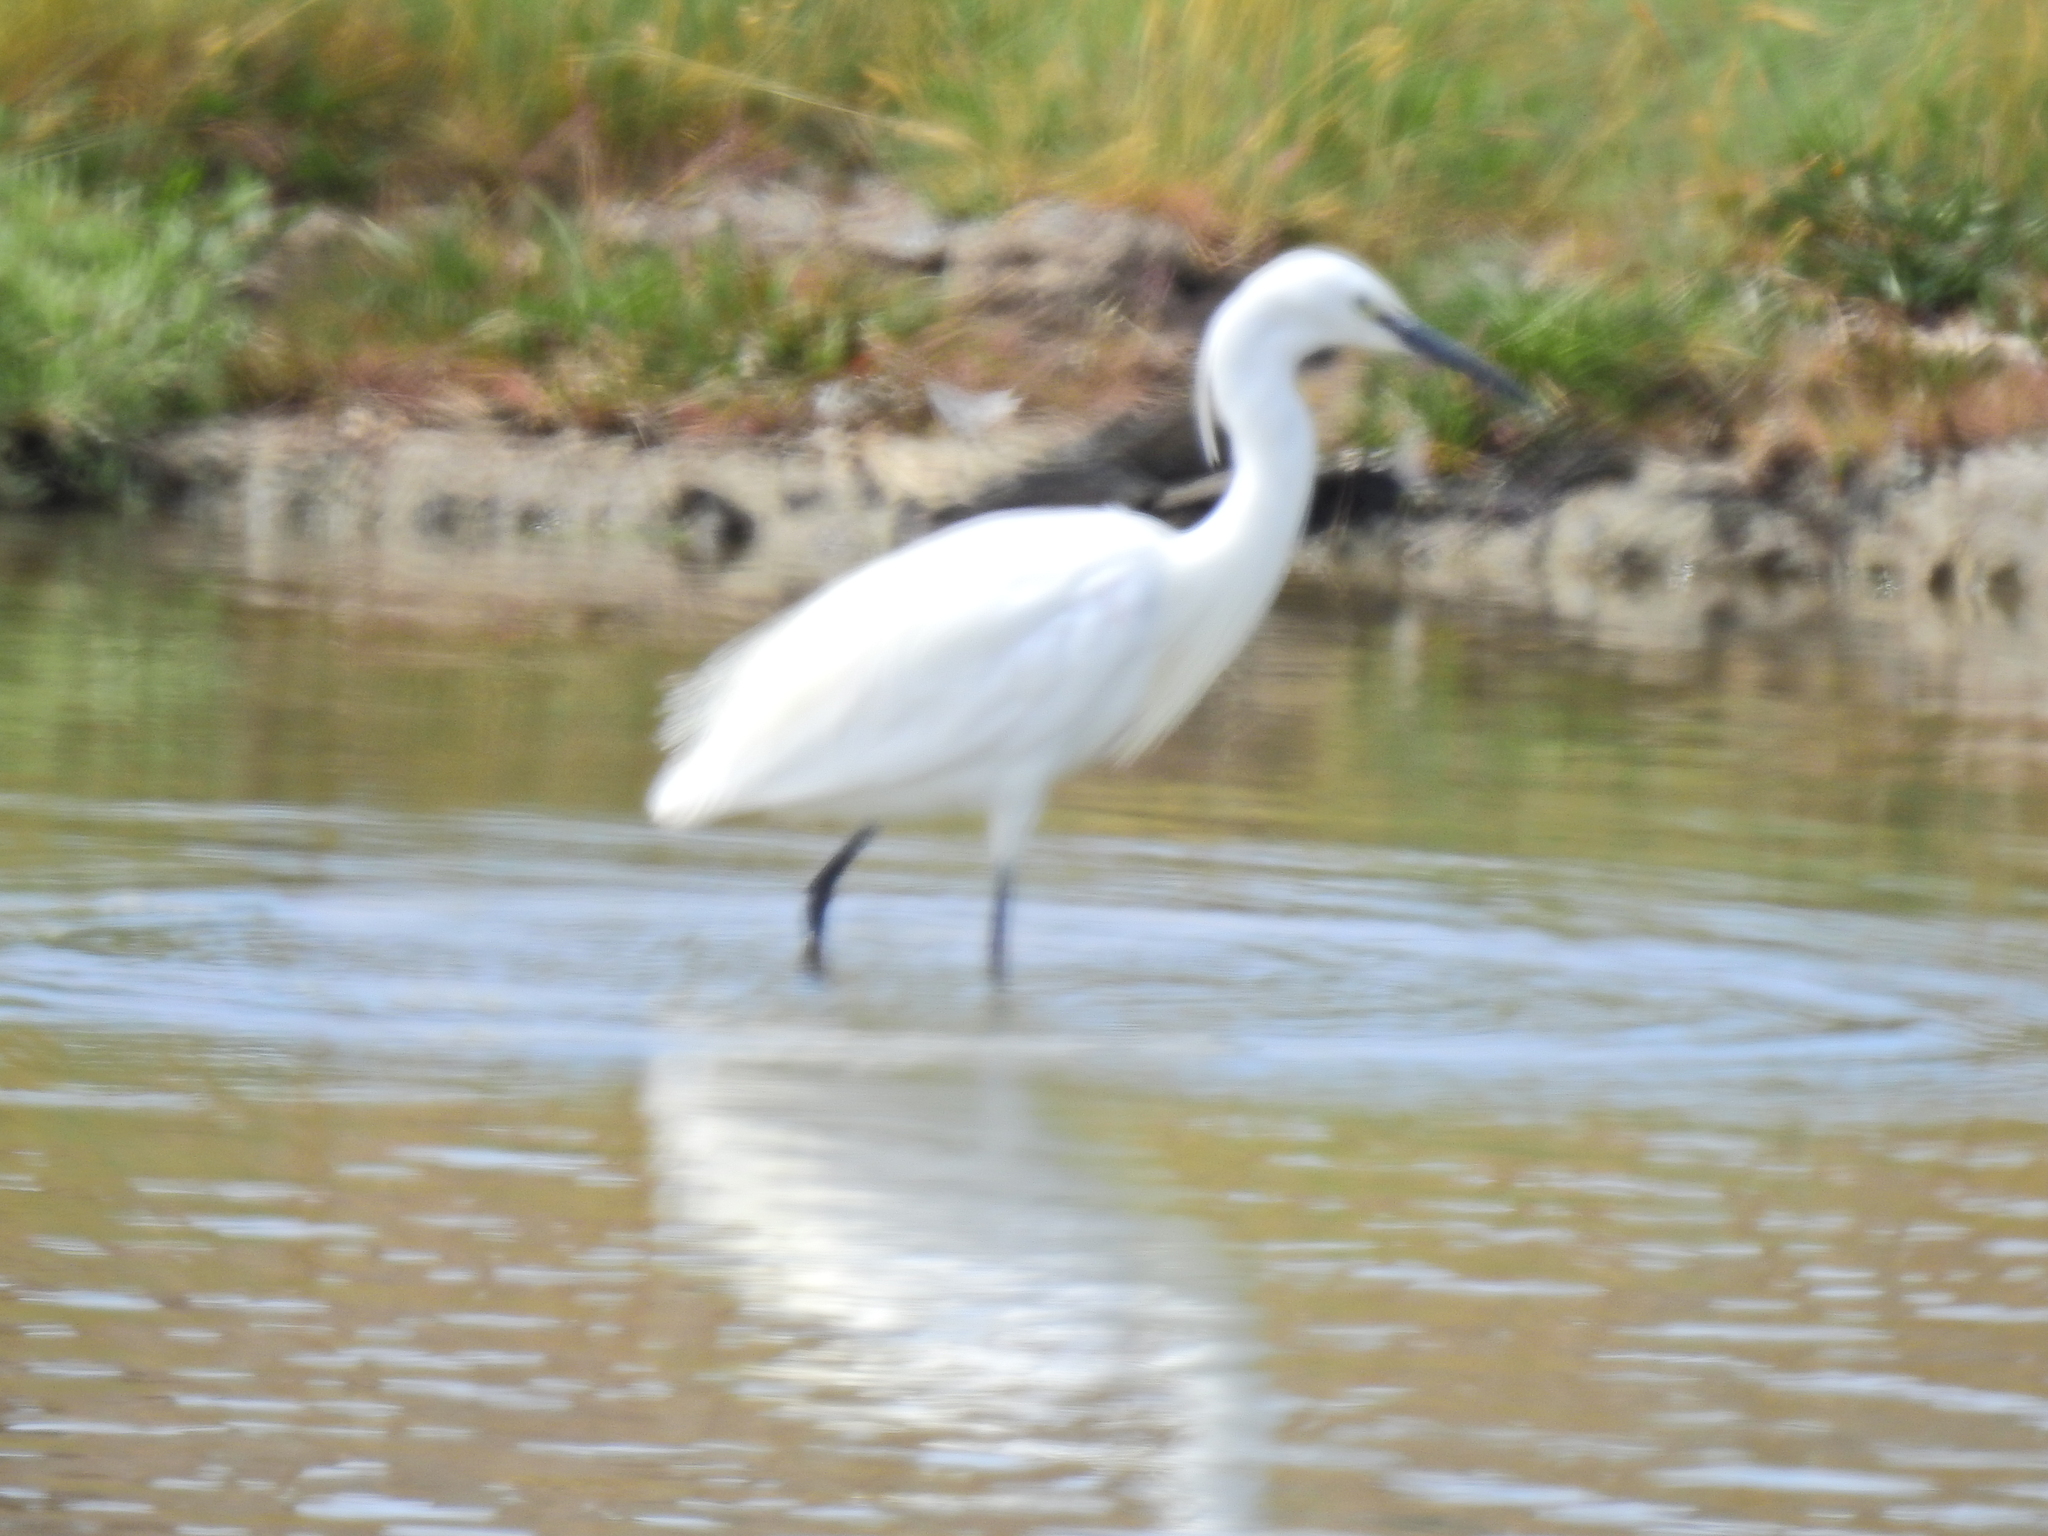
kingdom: Animalia
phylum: Chordata
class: Aves
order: Pelecaniformes
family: Ardeidae
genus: Egretta
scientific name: Egretta garzetta
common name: Little egret
